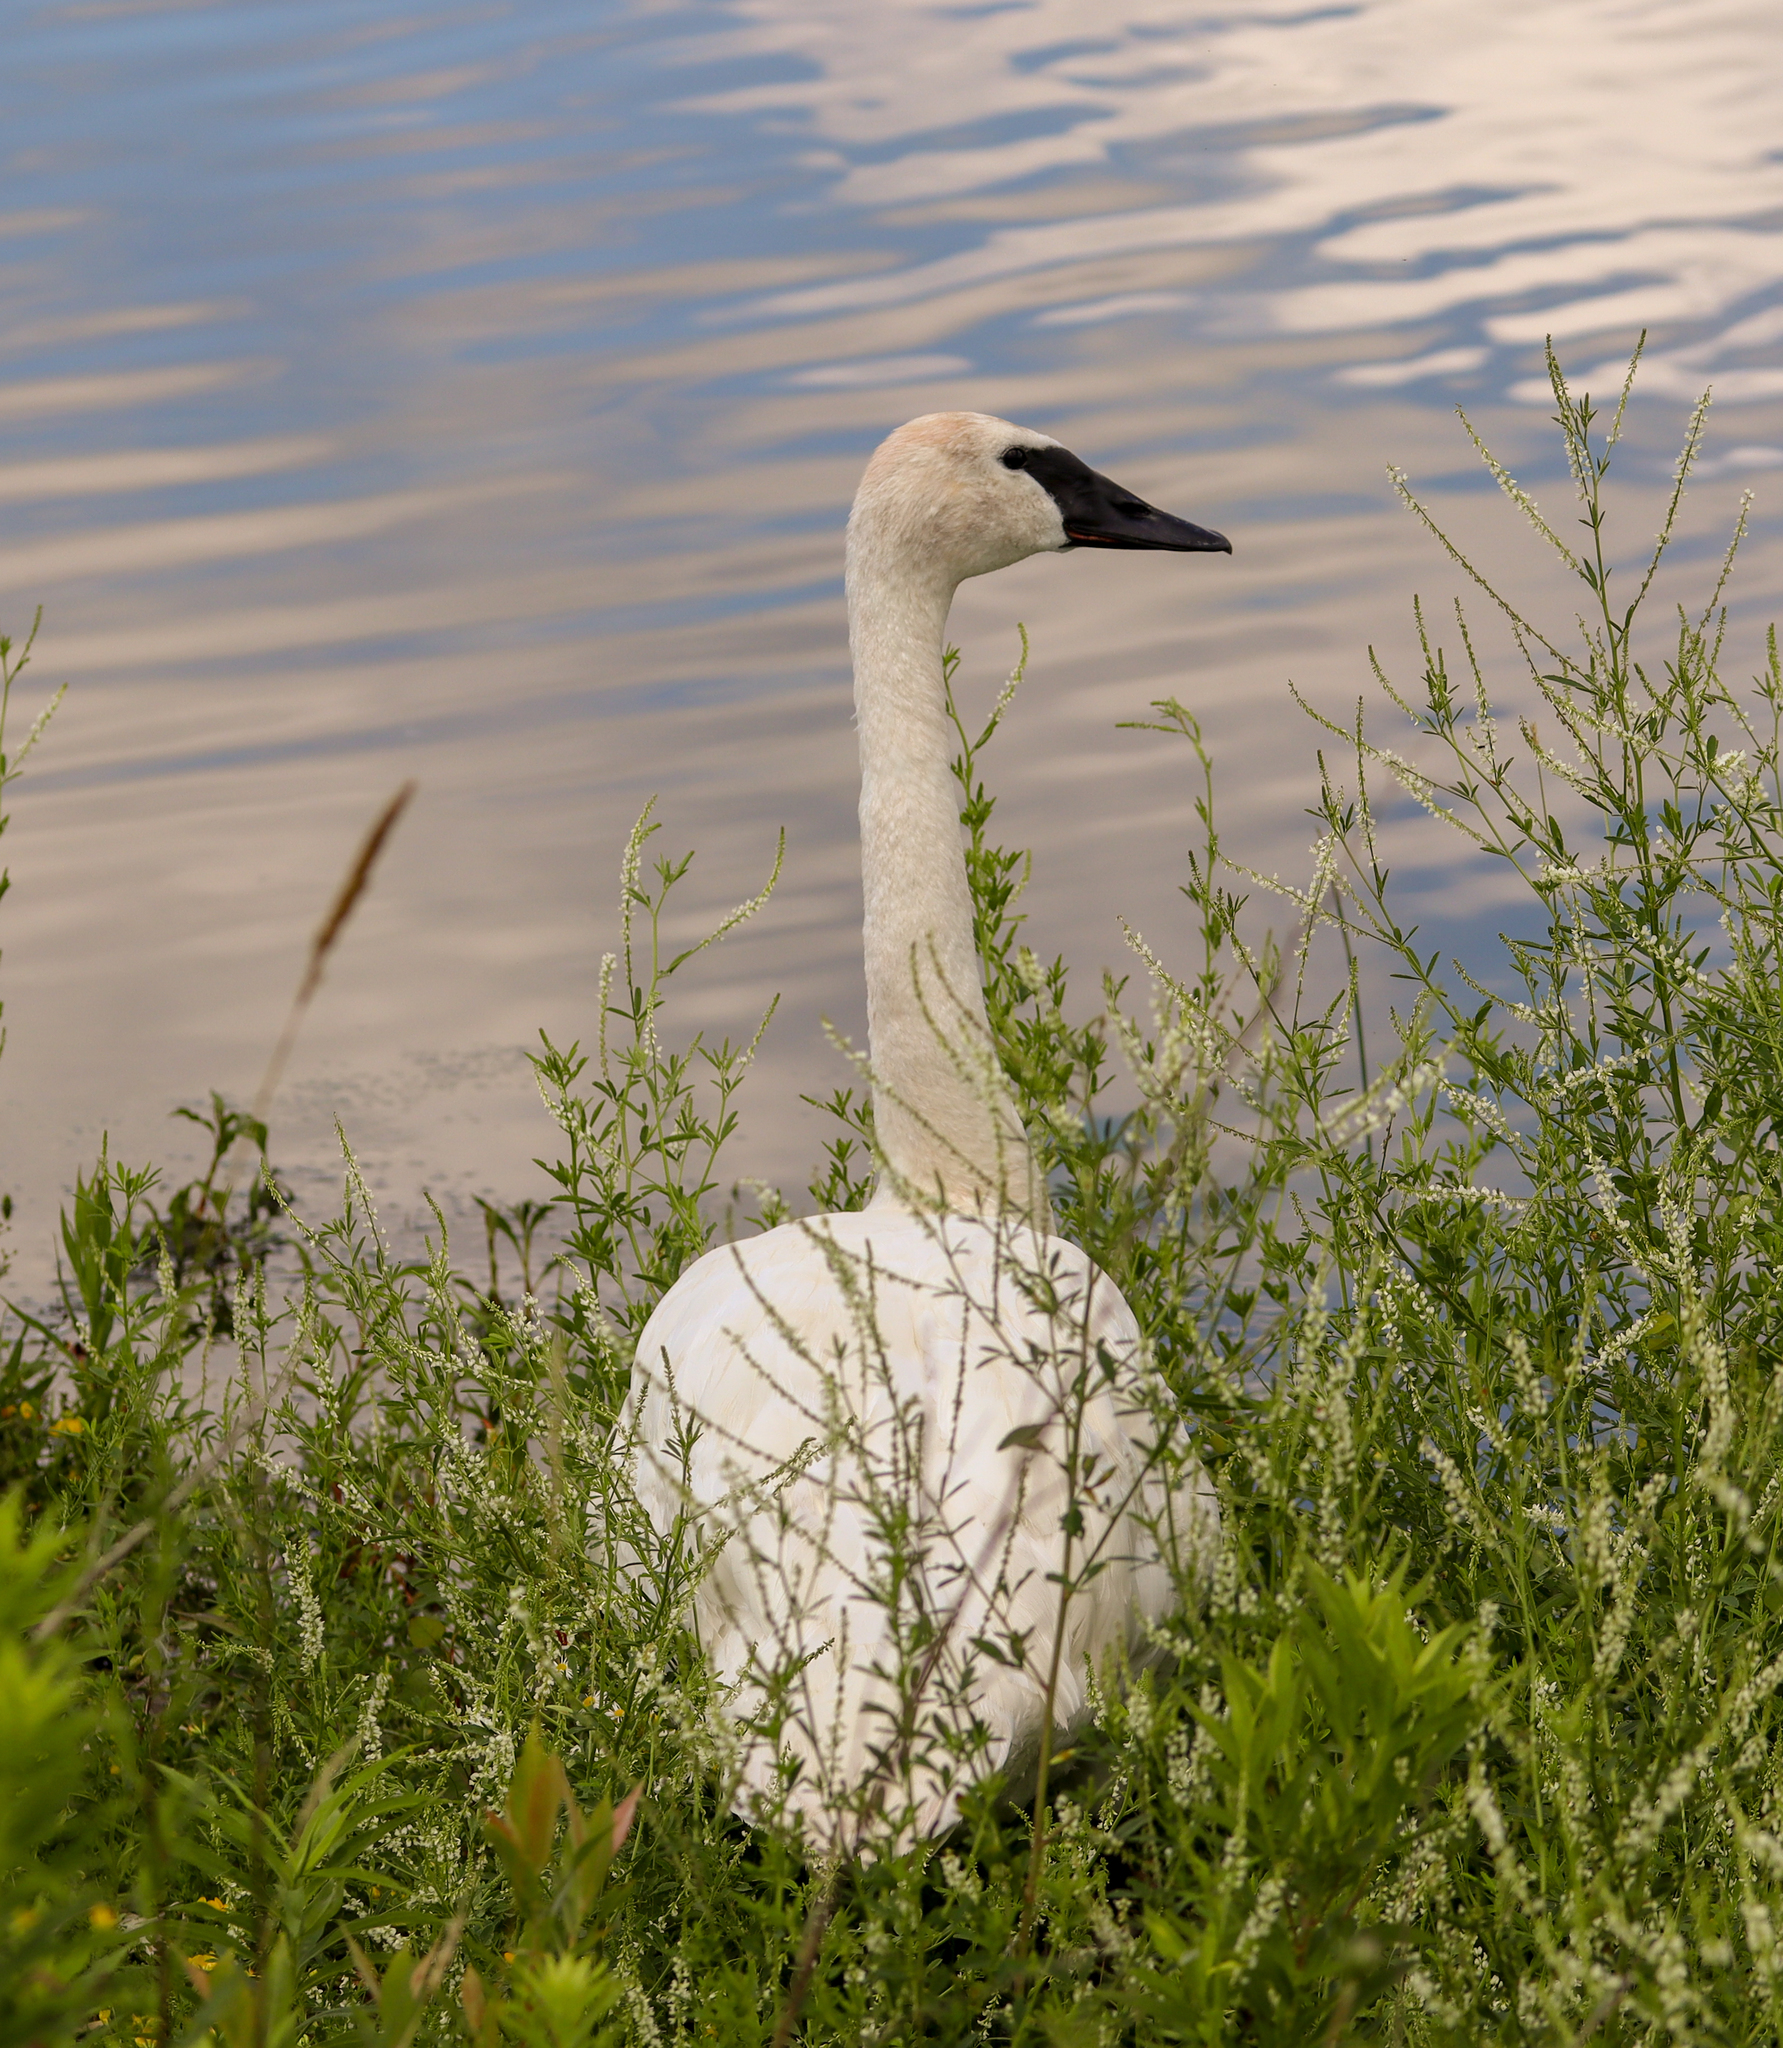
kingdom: Animalia
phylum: Chordata
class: Aves
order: Anseriformes
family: Anatidae
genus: Cygnus
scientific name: Cygnus buccinator
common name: Trumpeter swan
